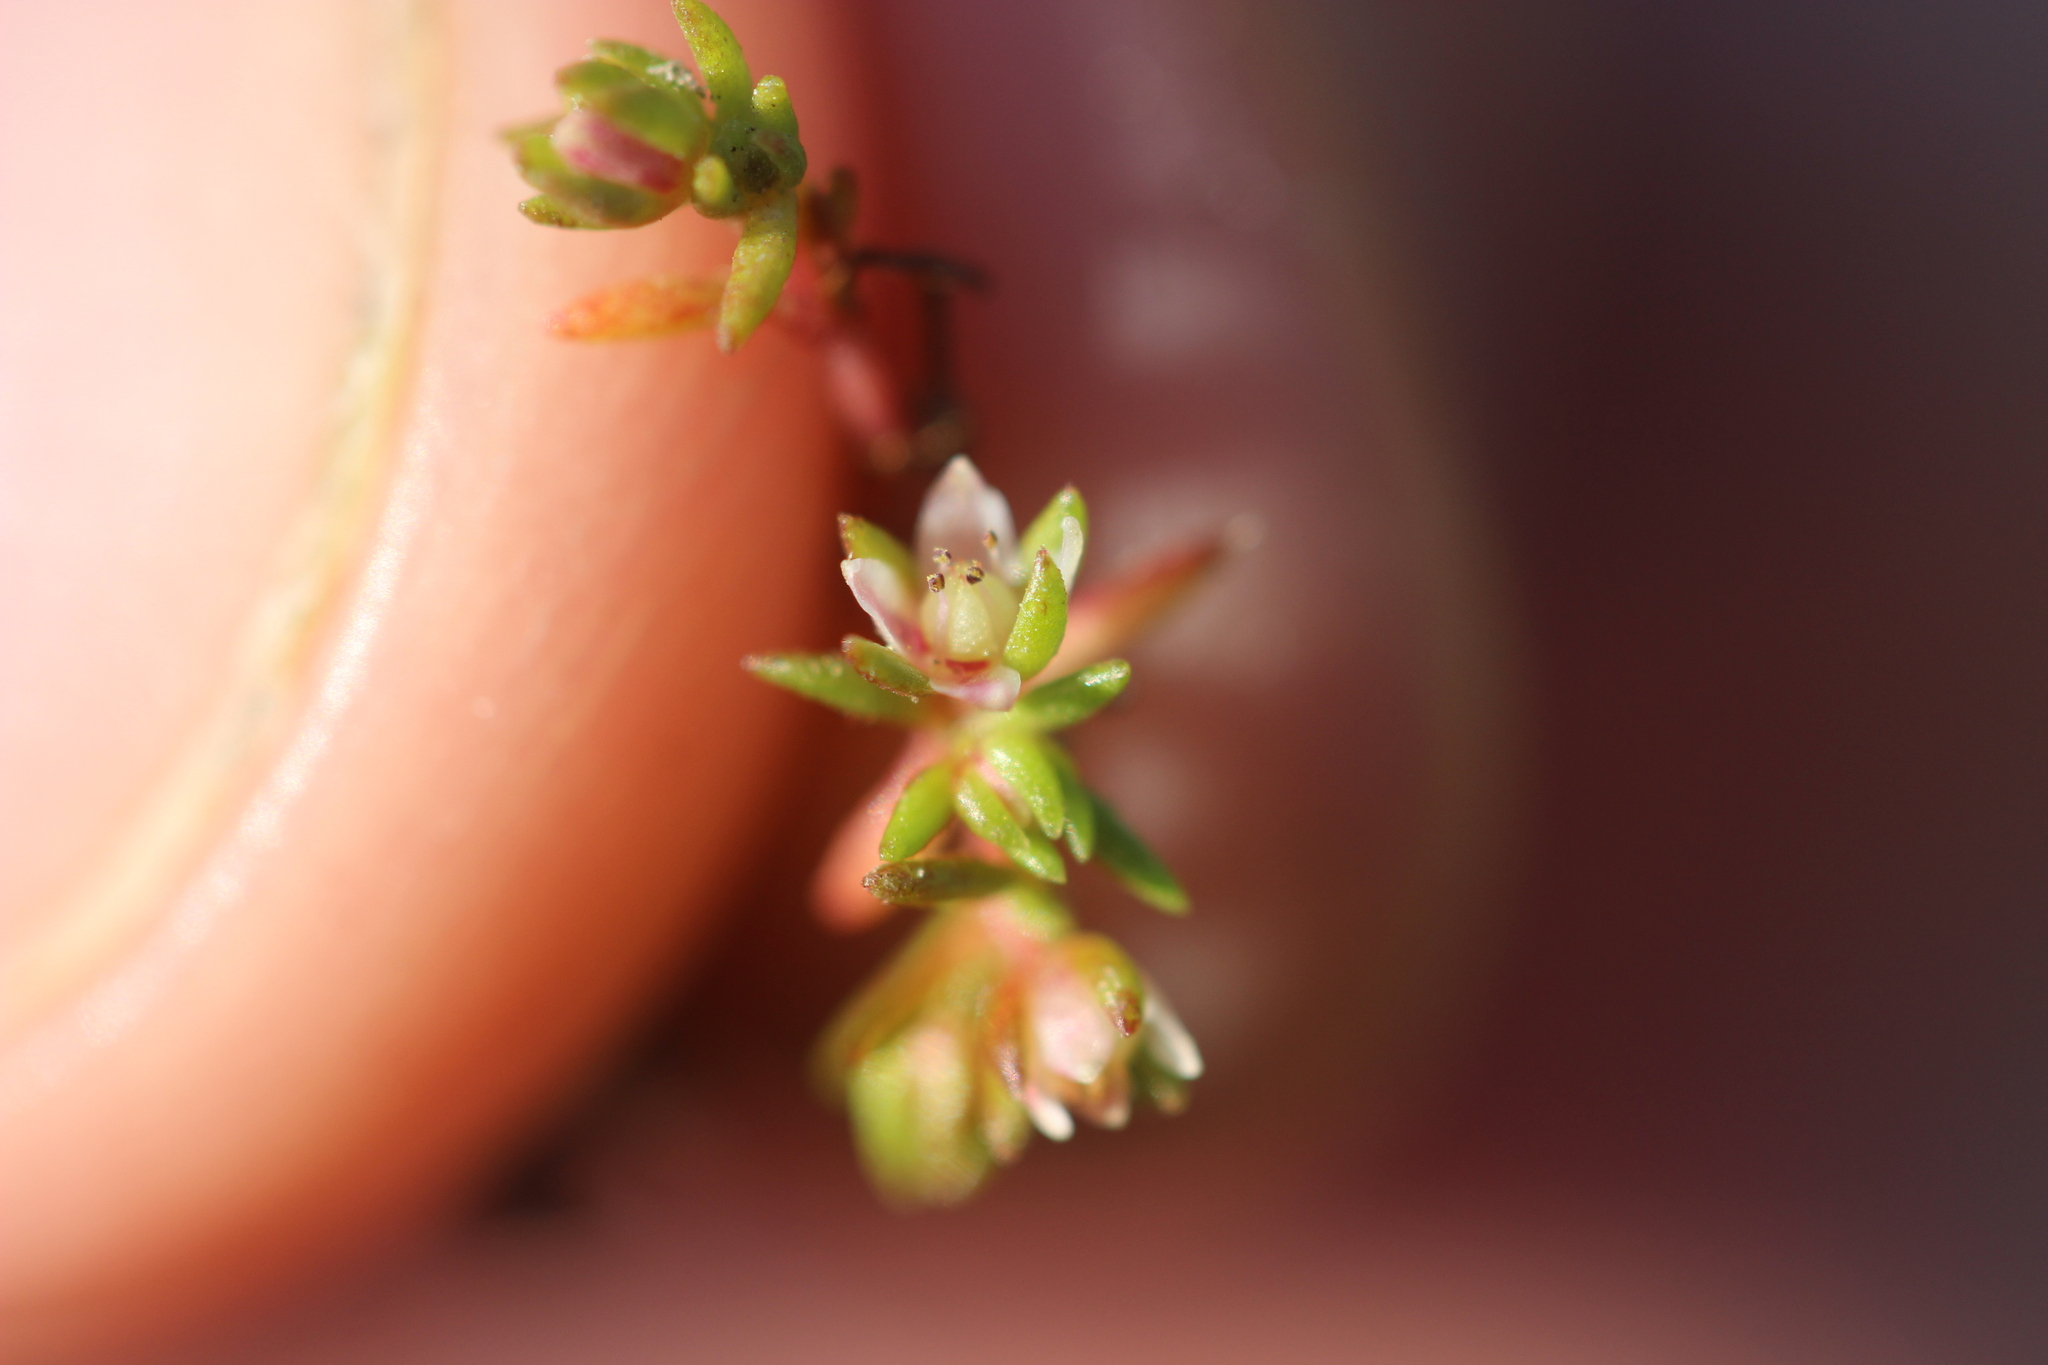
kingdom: Plantae
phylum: Tracheophyta
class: Magnoliopsida
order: Saxifragales
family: Crassulaceae
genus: Crassula
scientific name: Crassula decumbens
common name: Scilly pigmyweed
